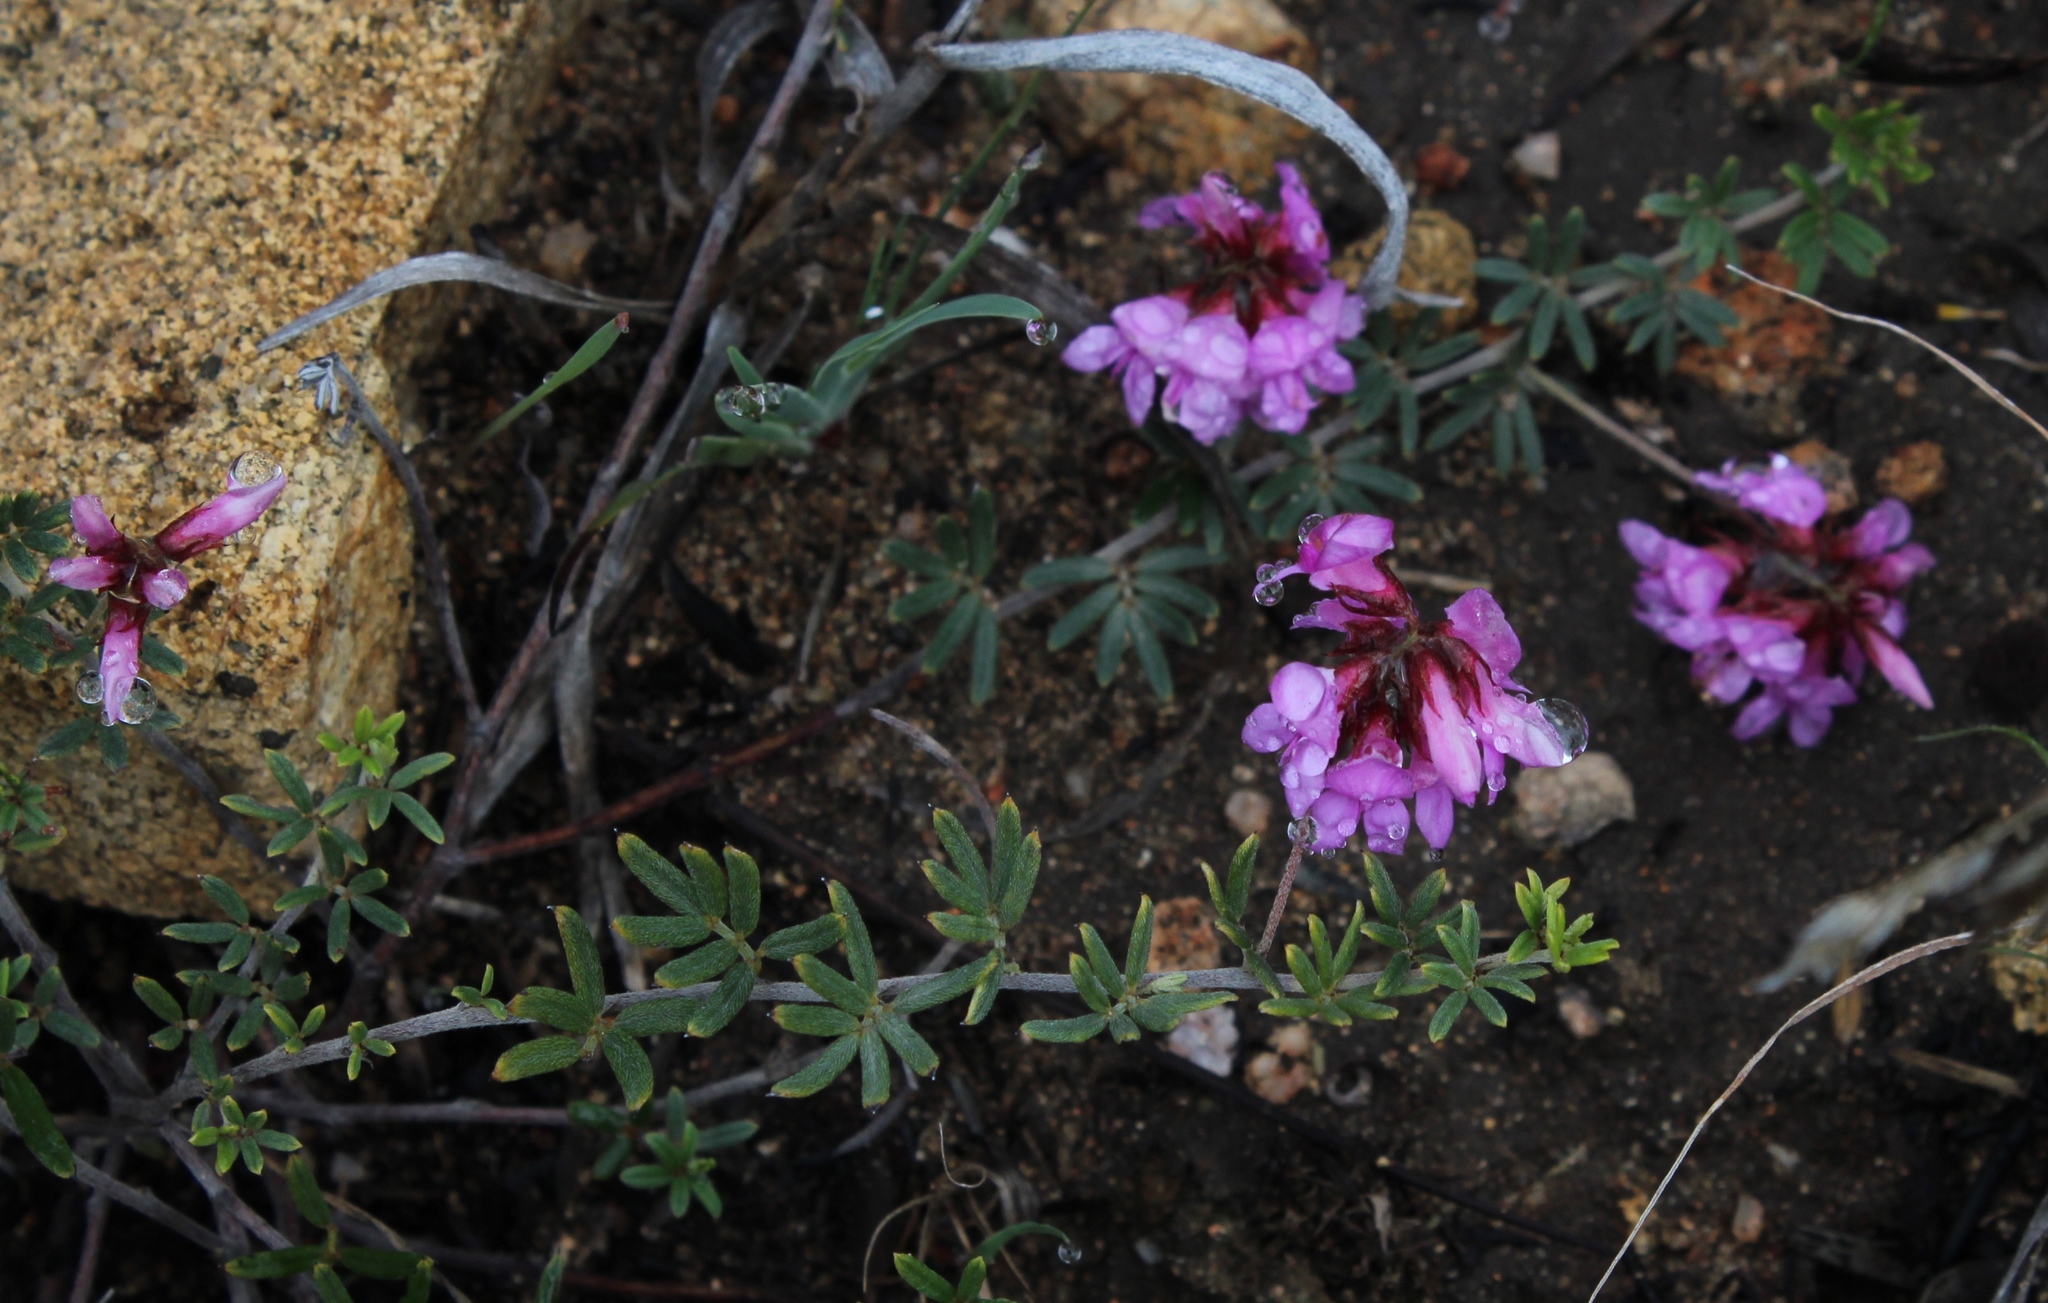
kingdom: Plantae
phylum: Tracheophyta
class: Magnoliopsida
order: Fabales
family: Fabaceae
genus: Indigofera
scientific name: Indigofera
